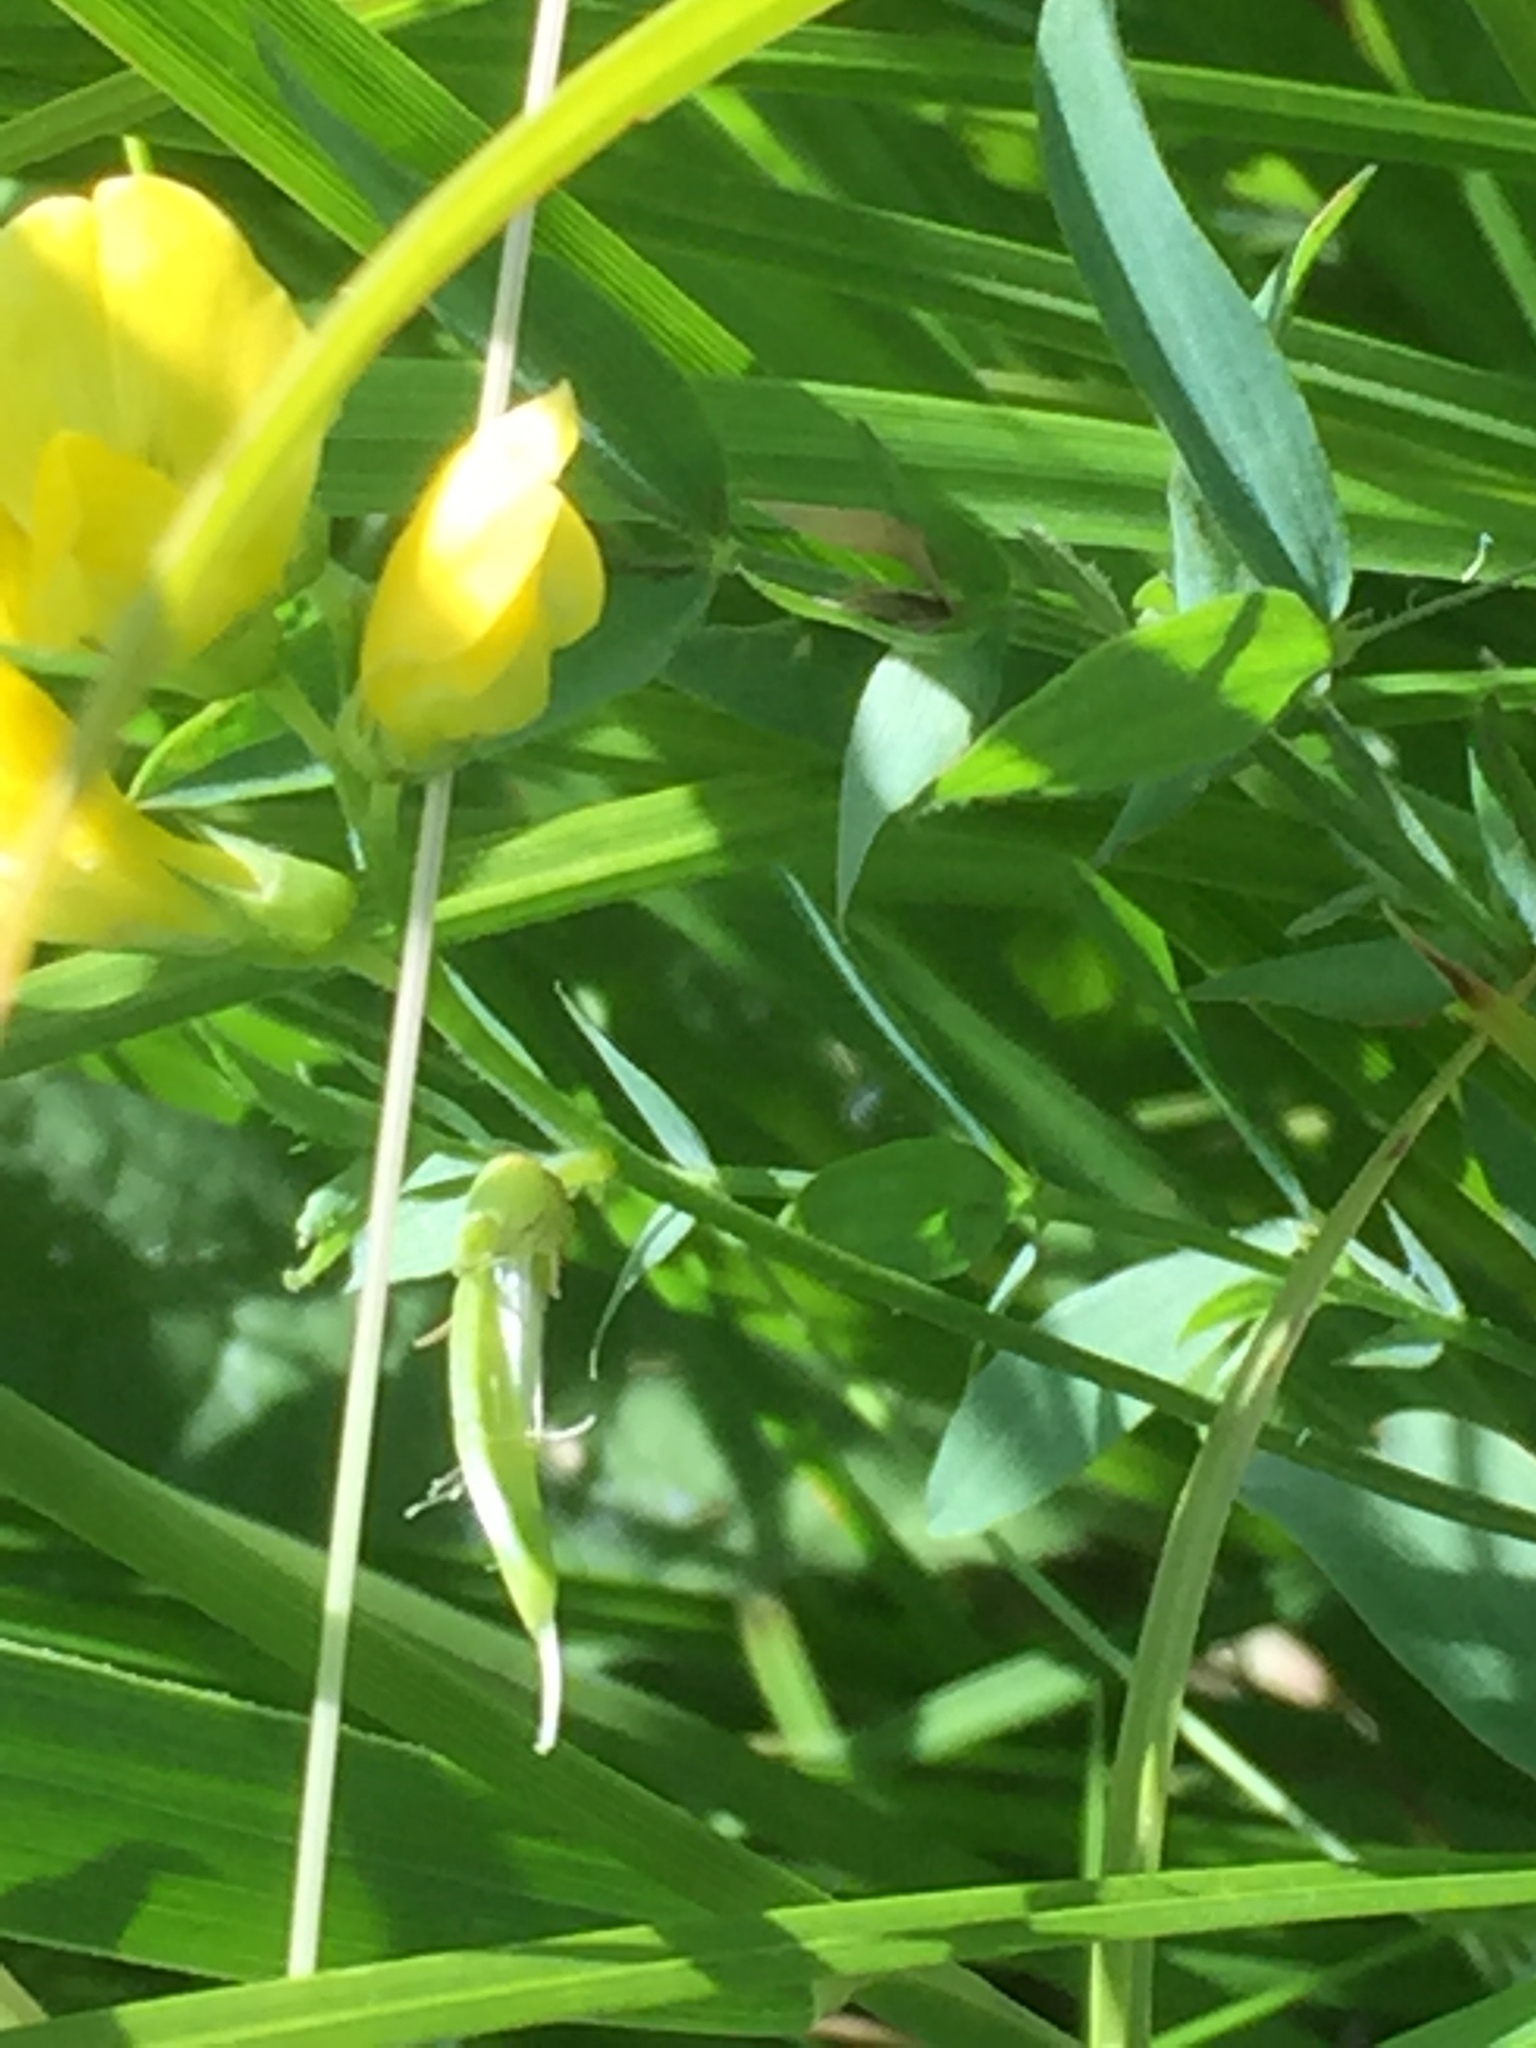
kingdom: Plantae
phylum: Tracheophyta
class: Magnoliopsida
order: Fabales
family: Fabaceae
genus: Lathyrus
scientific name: Lathyrus pratensis
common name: Meadow vetchling
